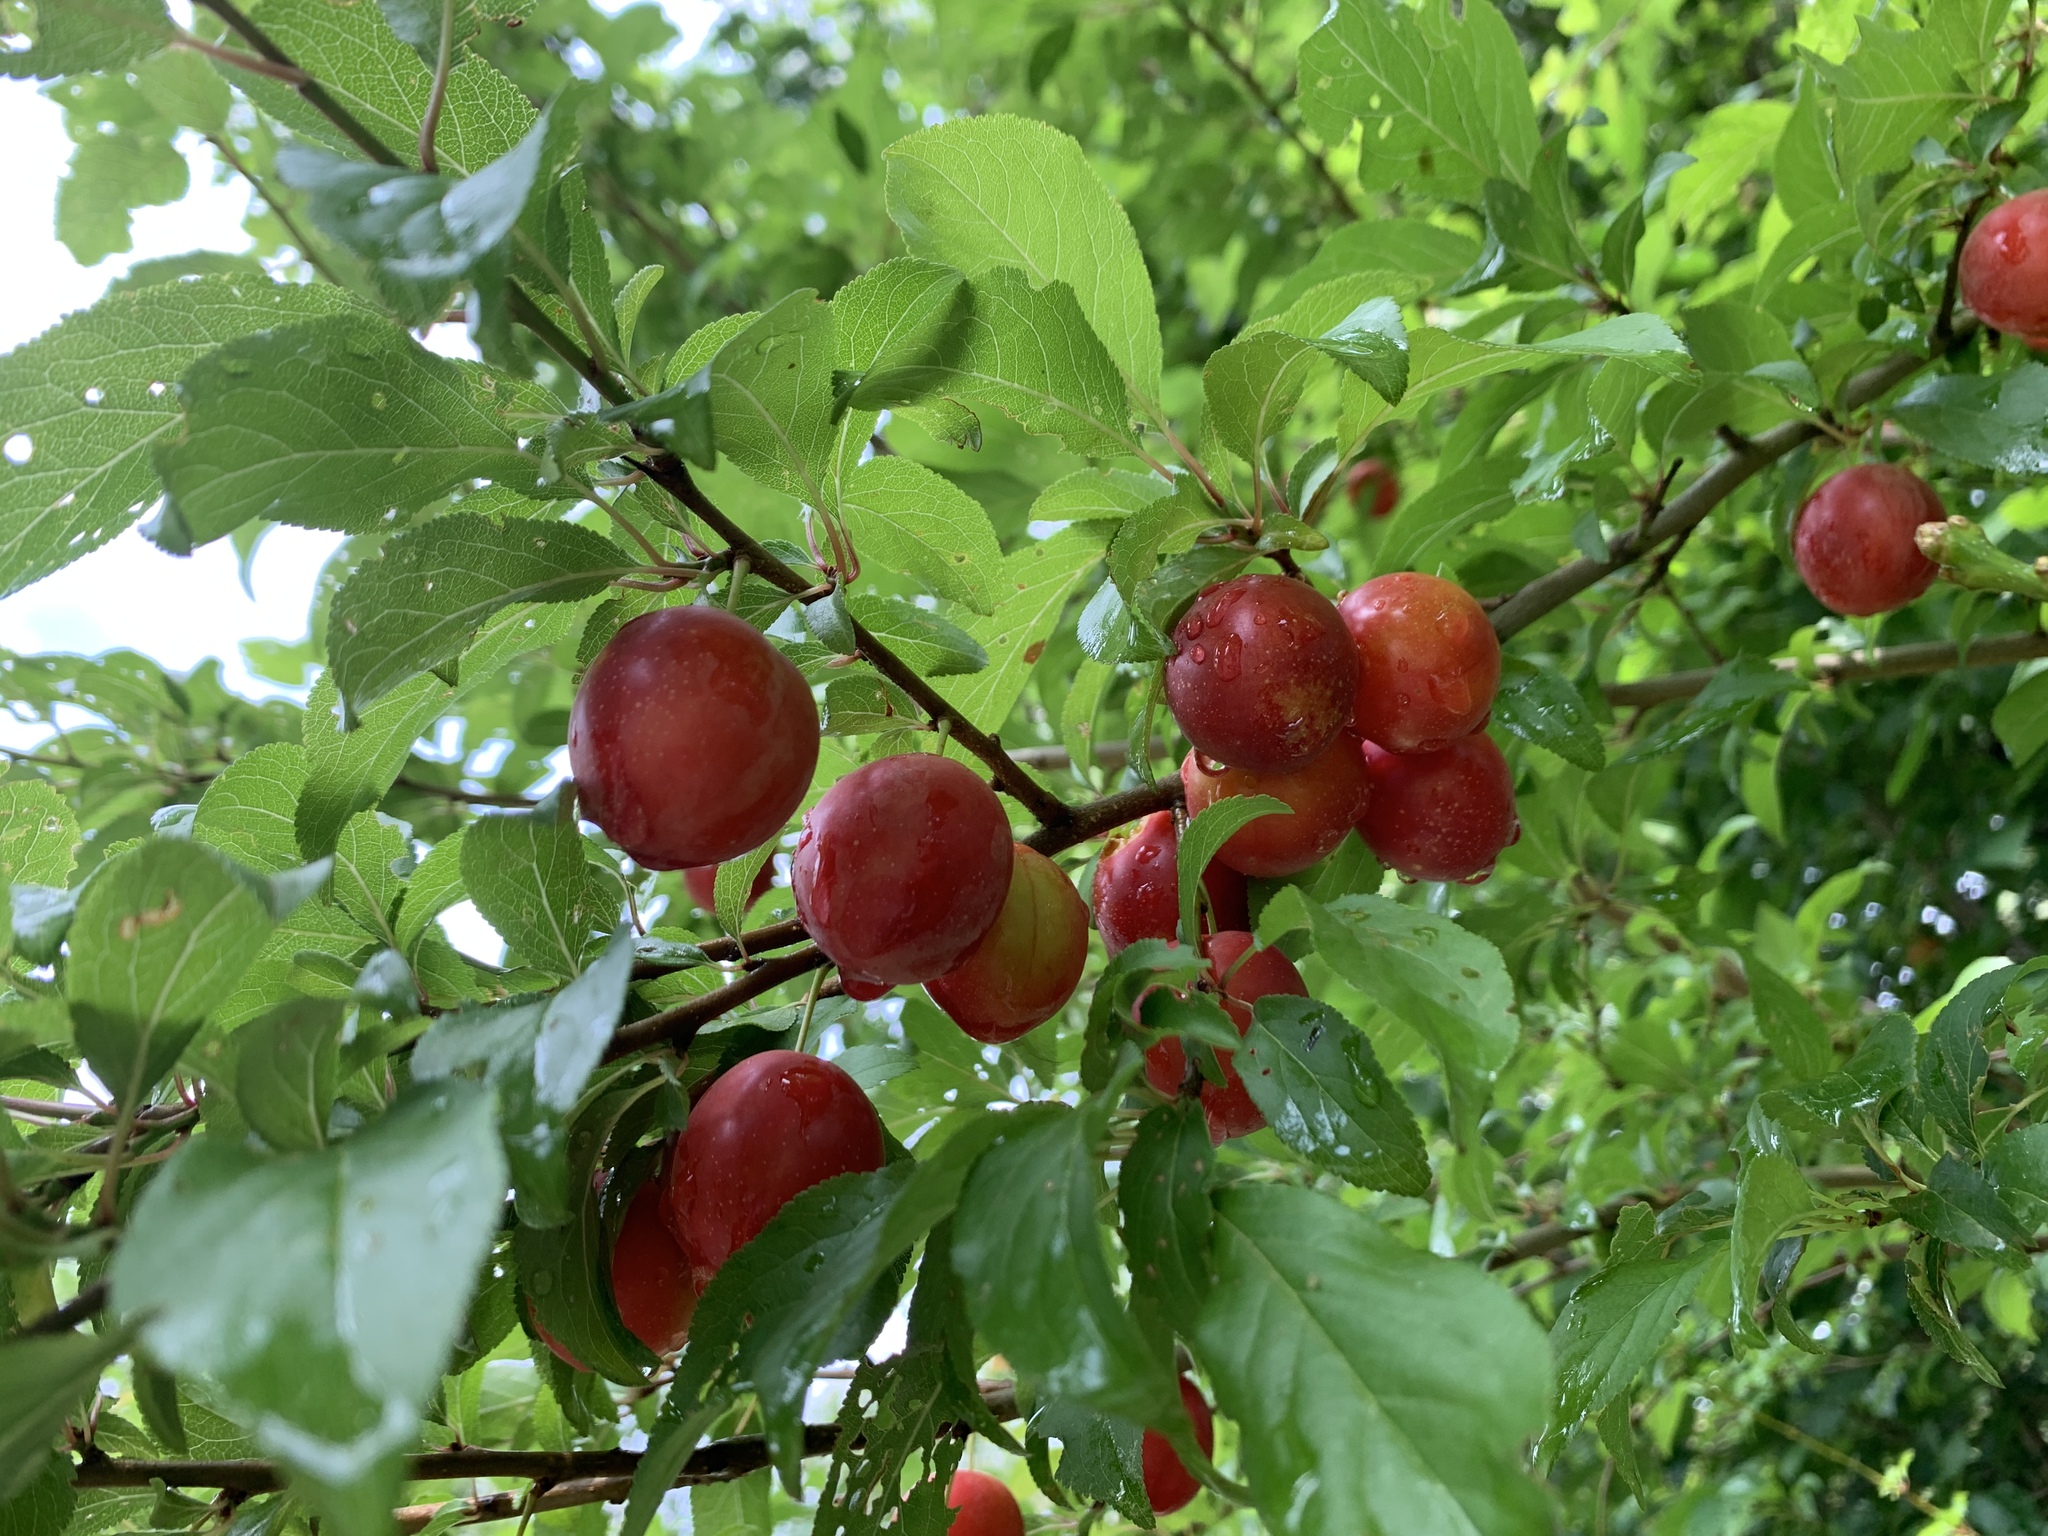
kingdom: Plantae
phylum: Tracheophyta
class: Magnoliopsida
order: Rosales
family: Rosaceae
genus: Prunus
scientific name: Prunus cerasifera
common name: Cherry plum
